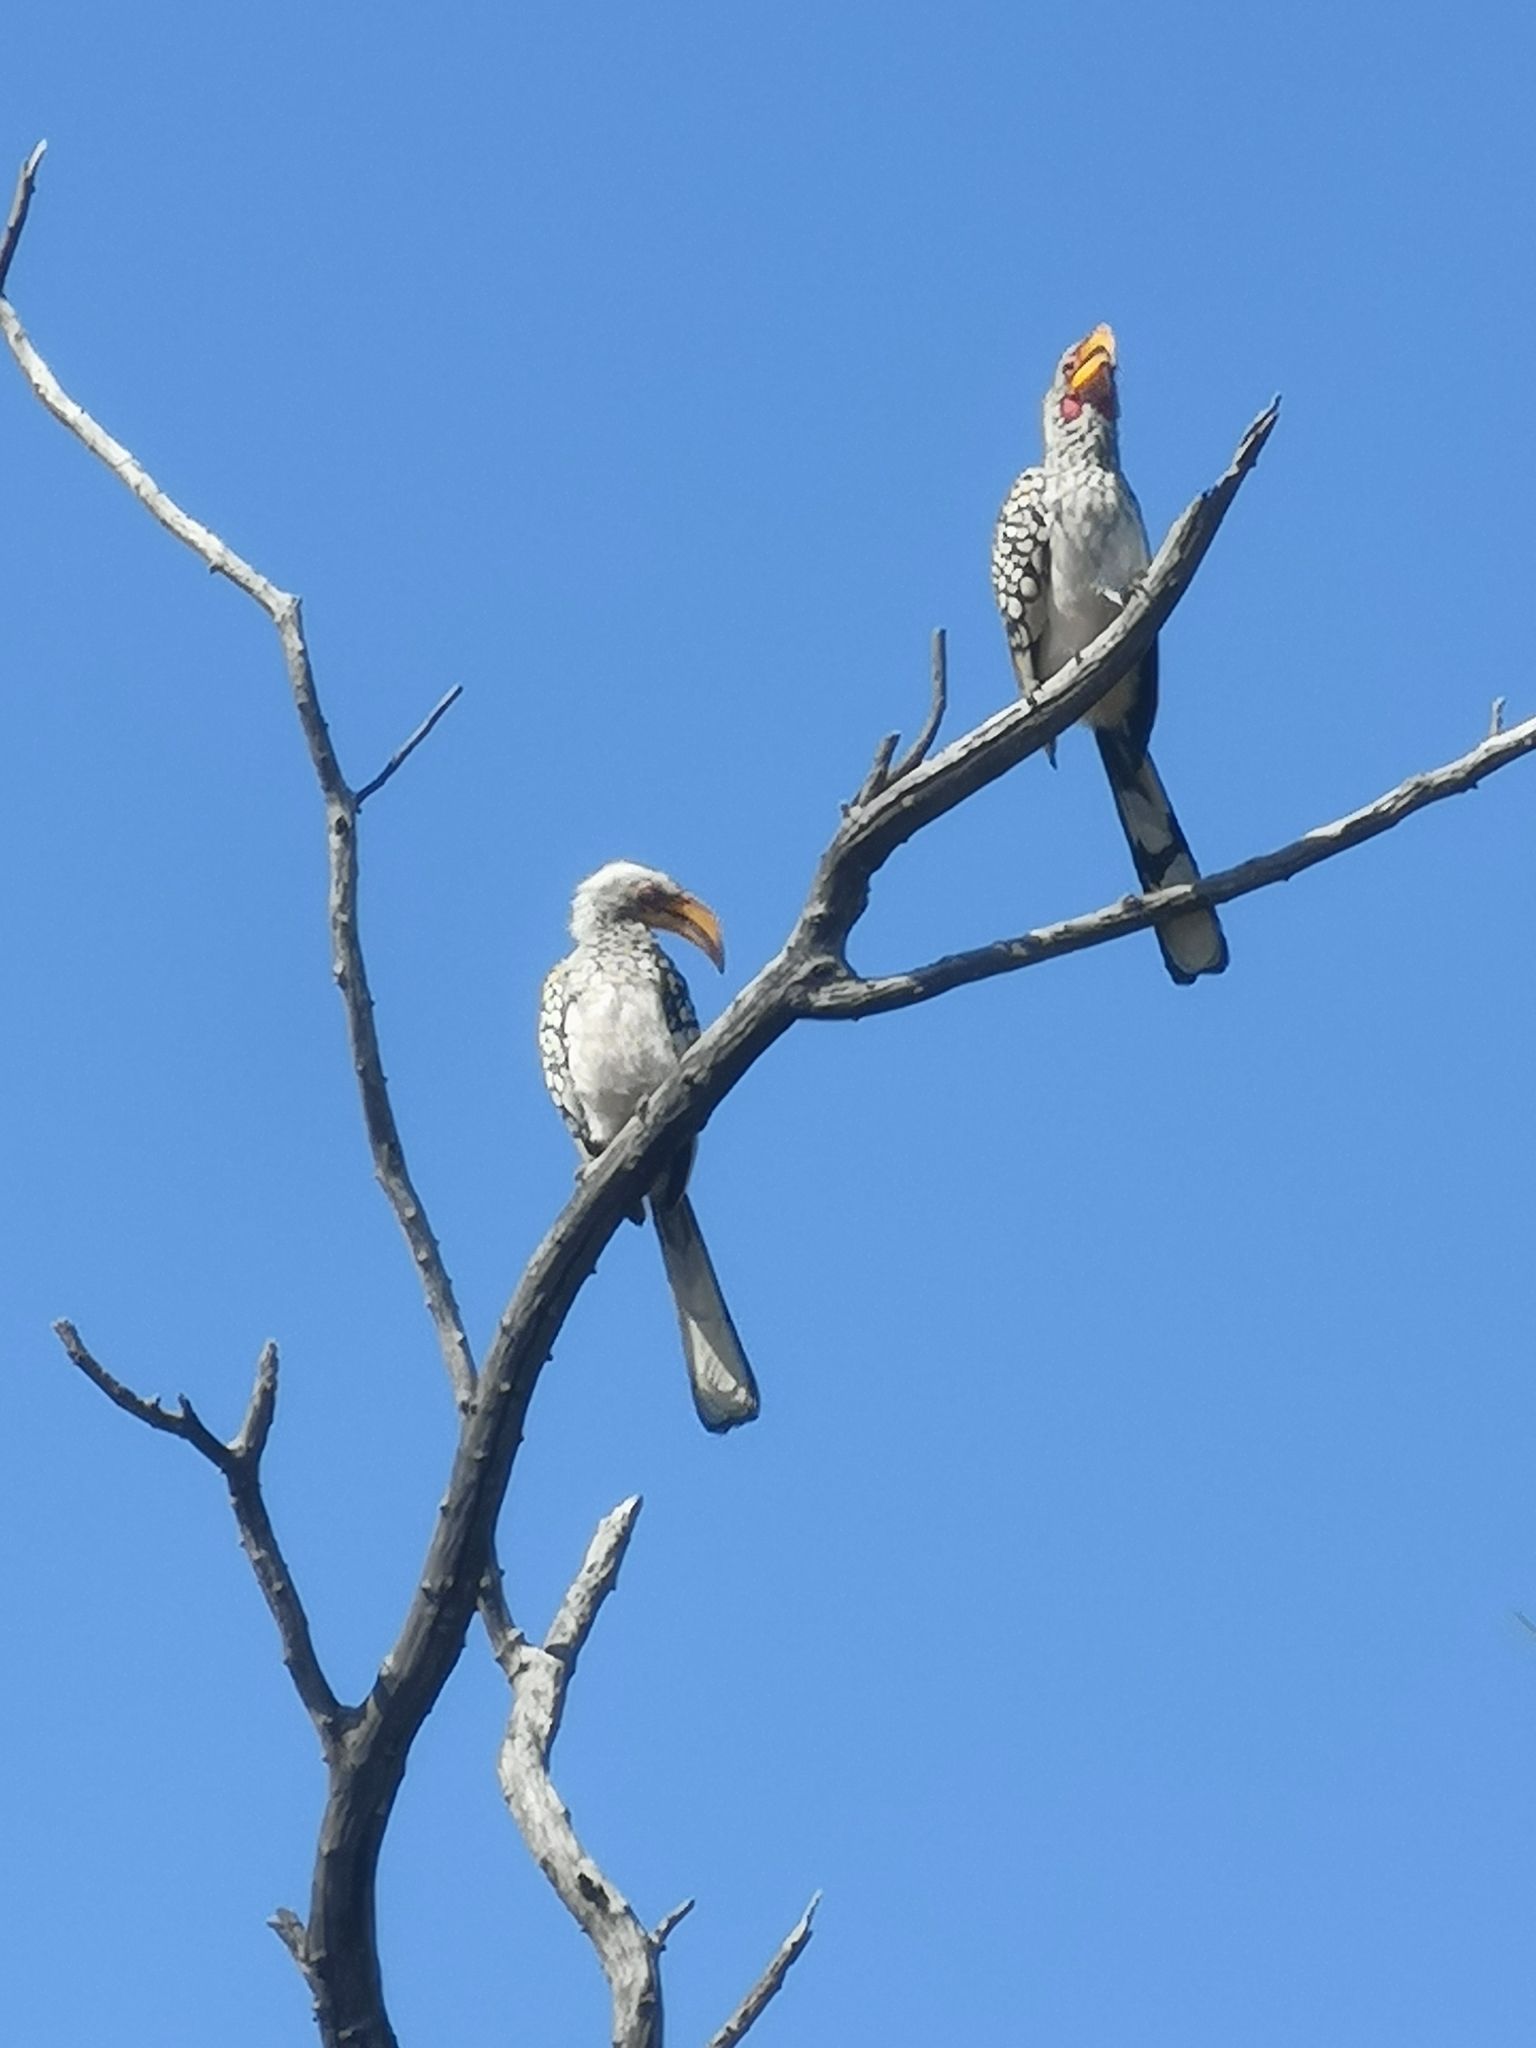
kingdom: Animalia
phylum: Chordata
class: Aves
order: Bucerotiformes
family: Bucerotidae
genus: Tockus
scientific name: Tockus leucomelas
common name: Southern yellow-billed hornbill
